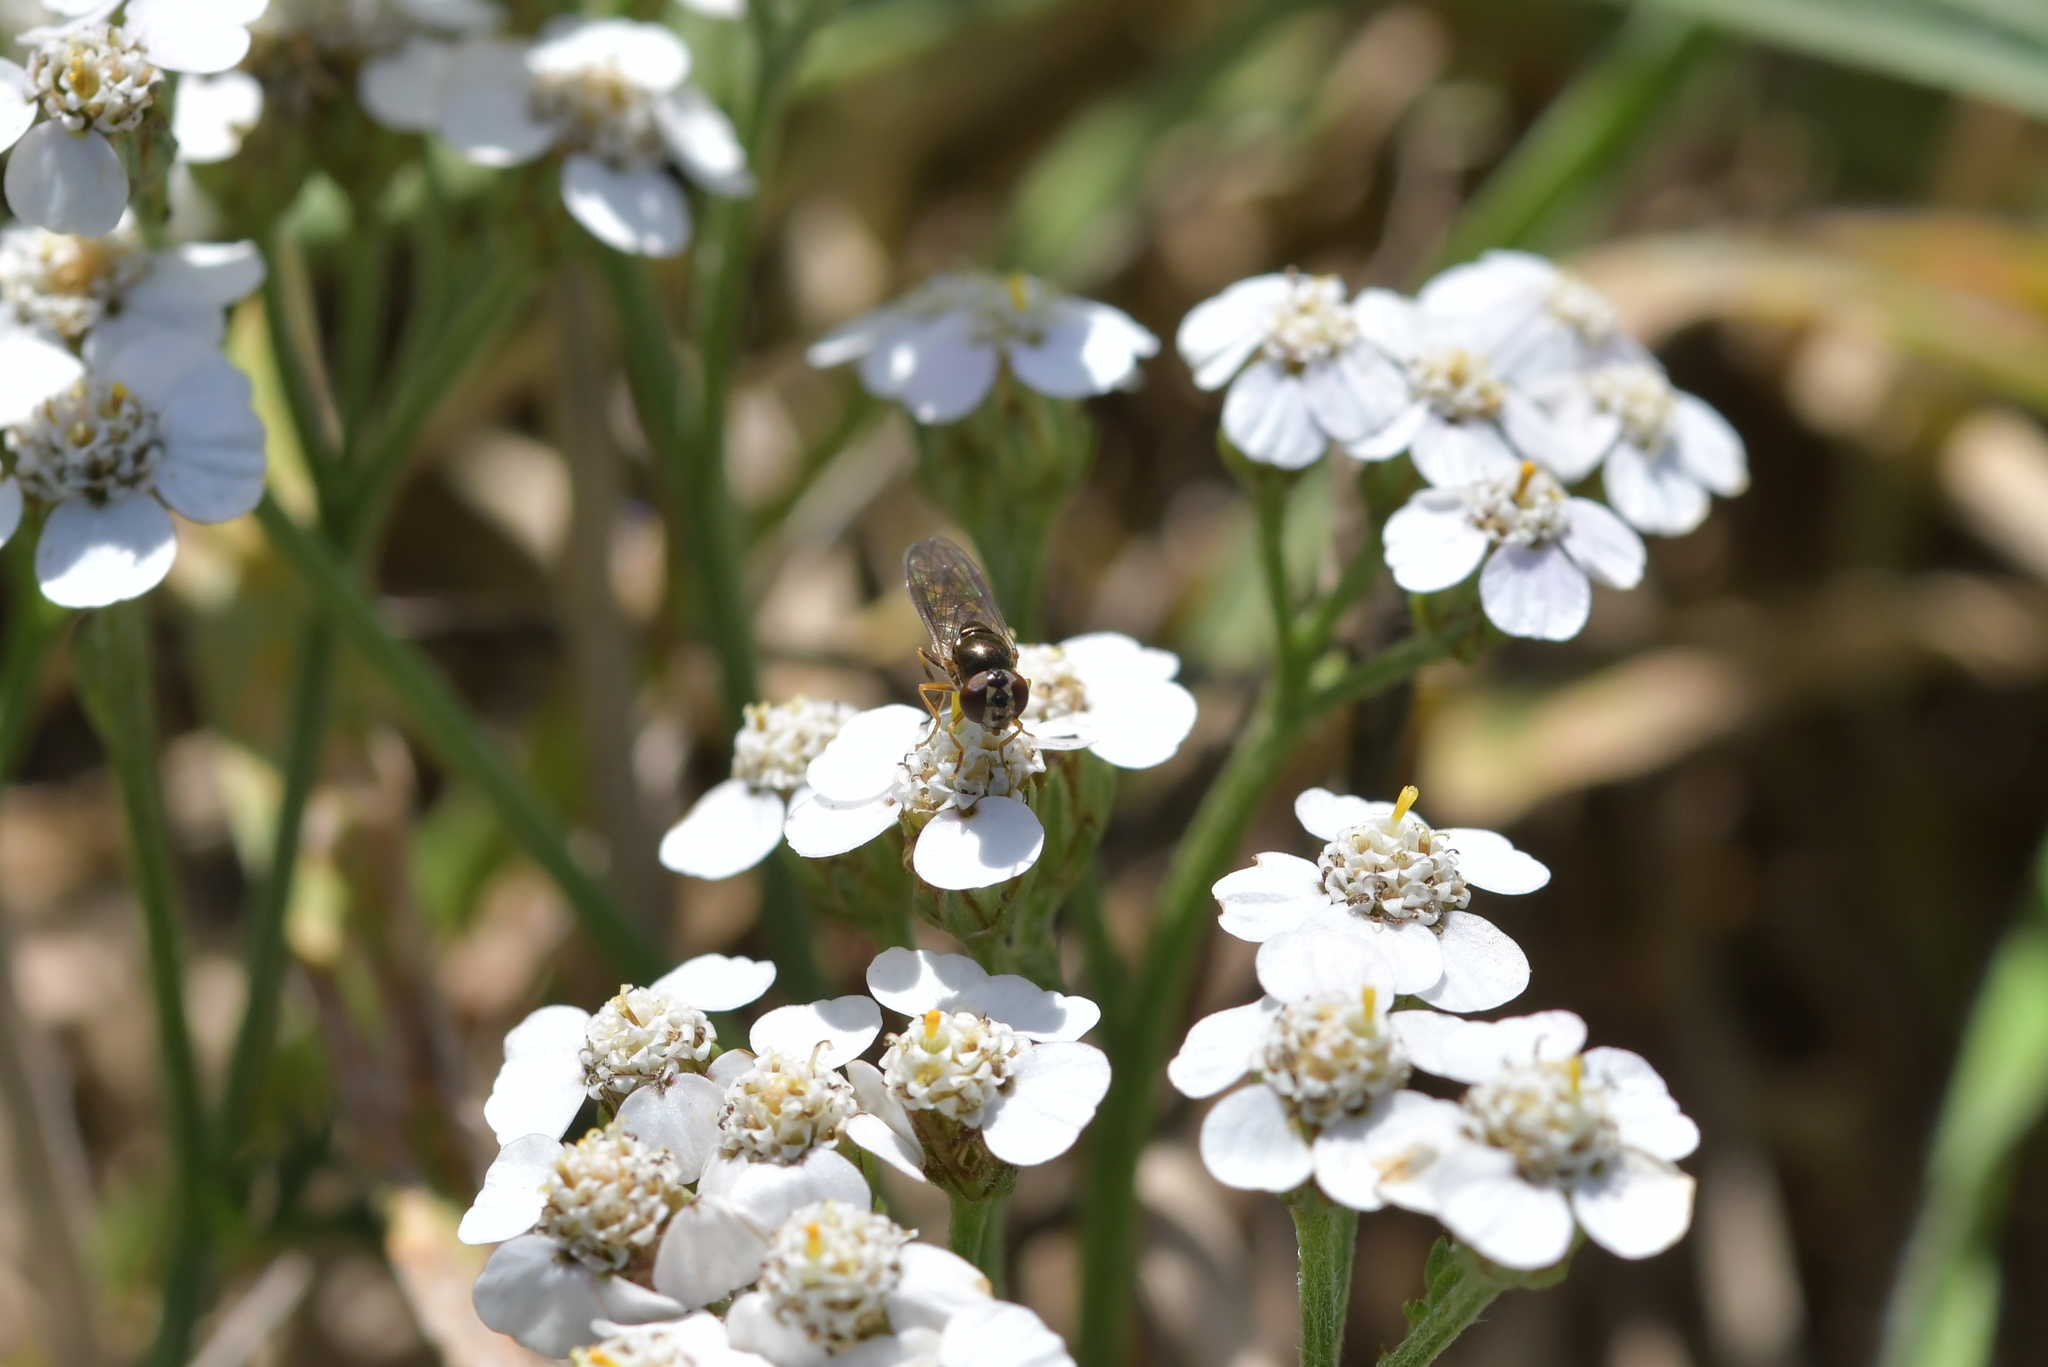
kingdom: Animalia
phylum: Arthropoda
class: Insecta
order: Diptera
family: Syrphidae
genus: Melanostoma
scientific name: Melanostoma fasciatum
